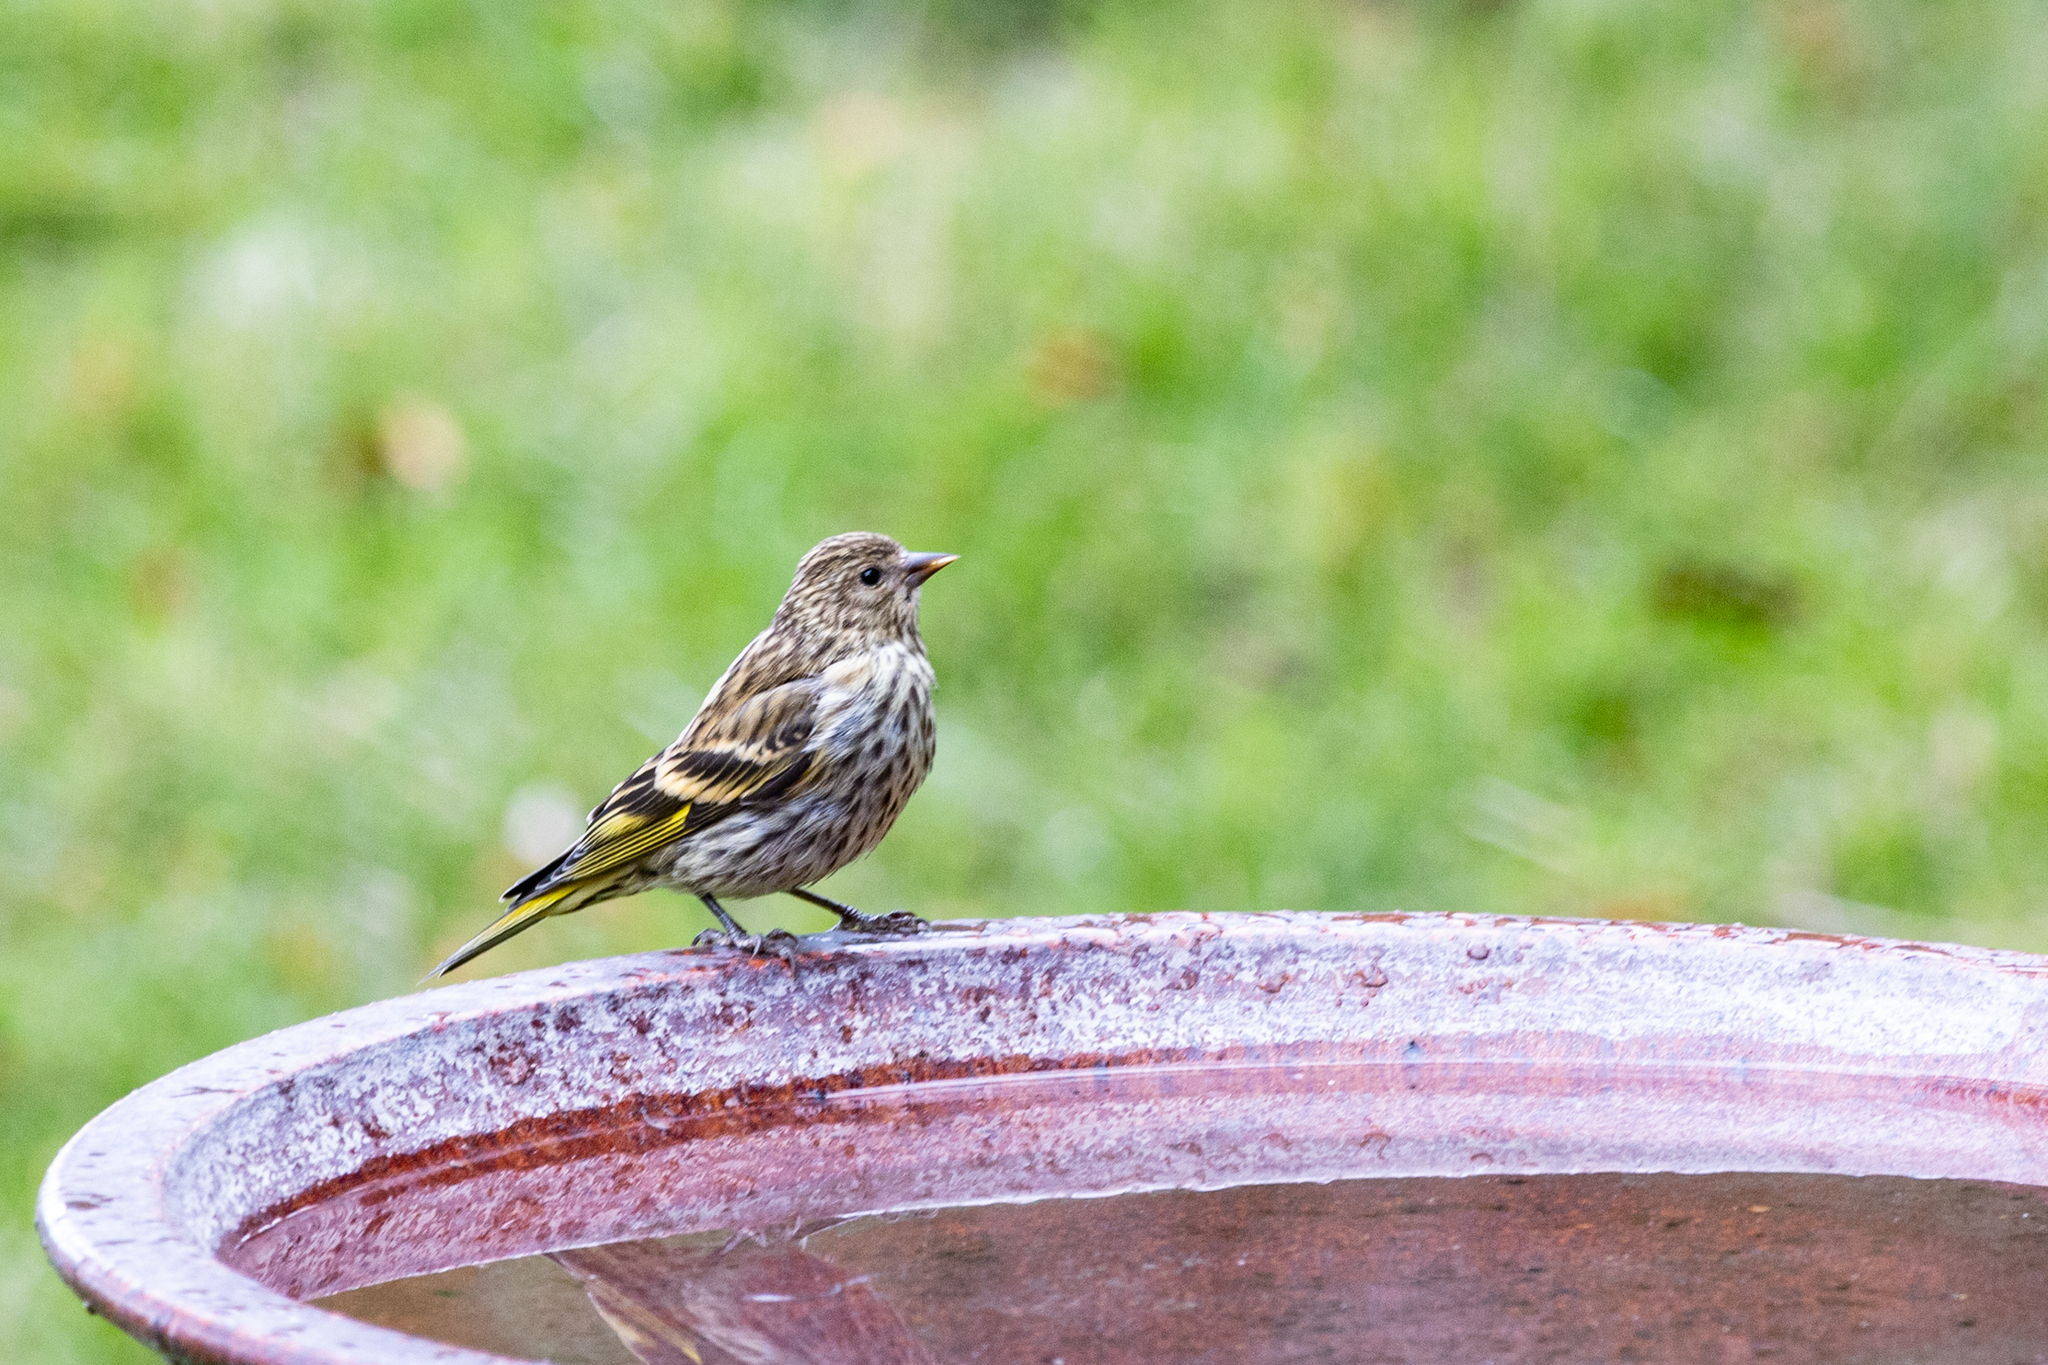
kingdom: Animalia
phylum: Chordata
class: Aves
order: Passeriformes
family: Fringillidae
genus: Spinus
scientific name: Spinus pinus
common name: Pine siskin
